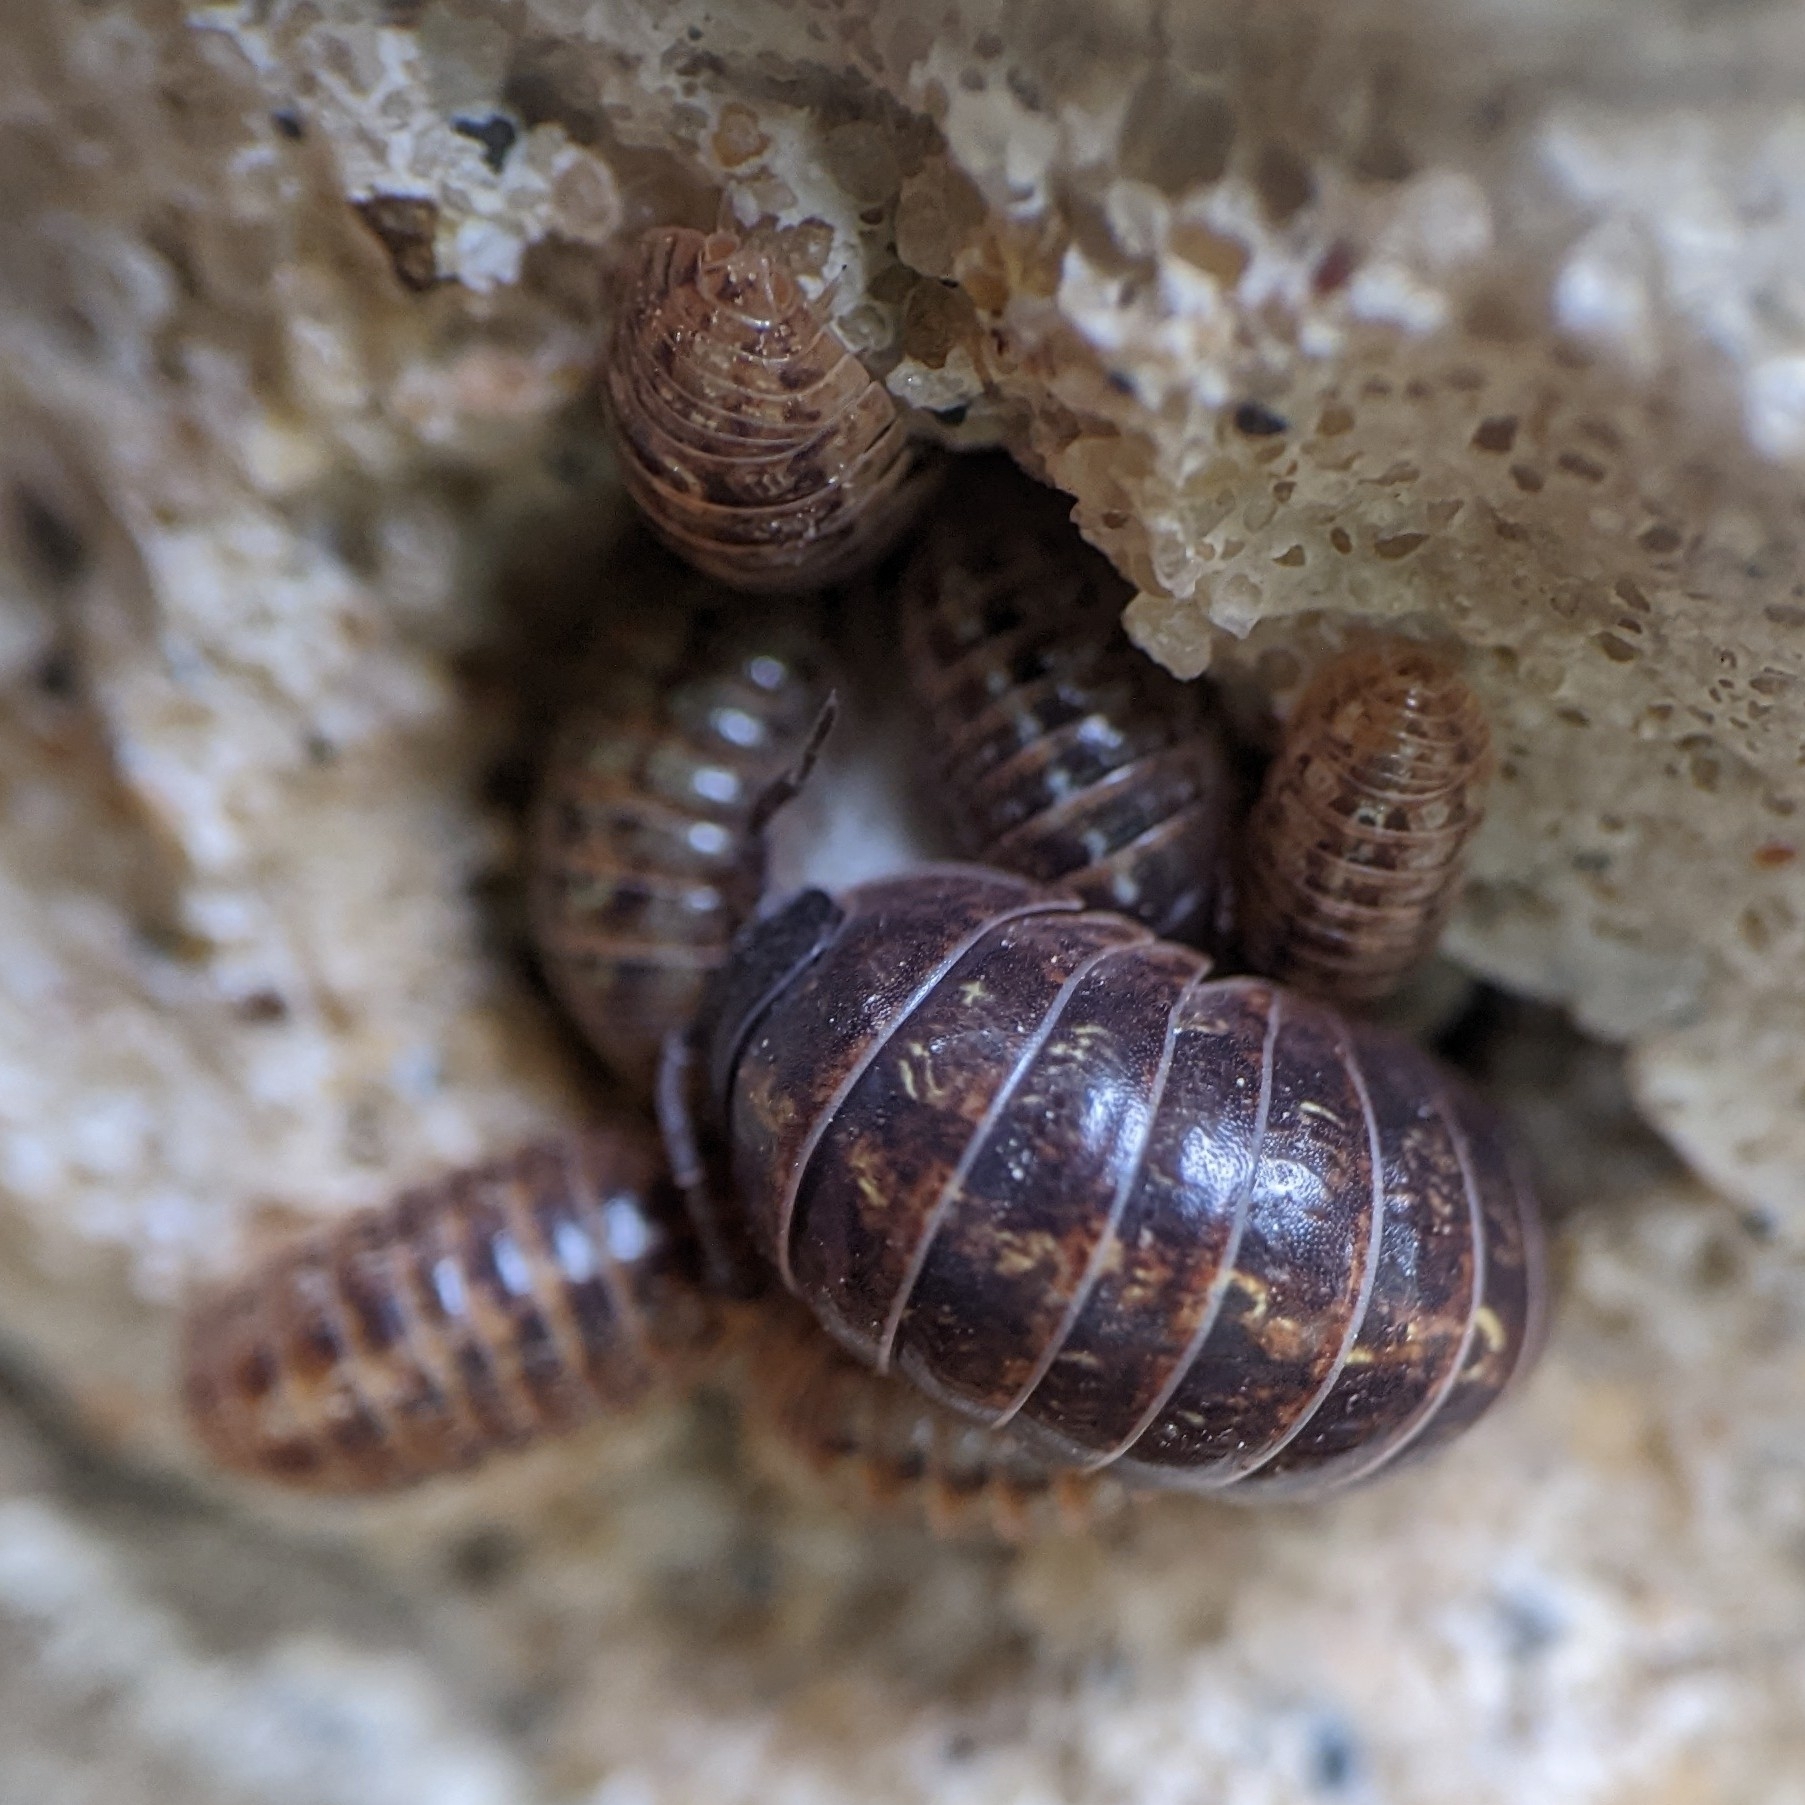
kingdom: Animalia
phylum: Arthropoda
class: Malacostraca
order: Isopoda
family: Armadillidiidae
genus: Armadillidium
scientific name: Armadillidium vulgare
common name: Common pill woodlouse
